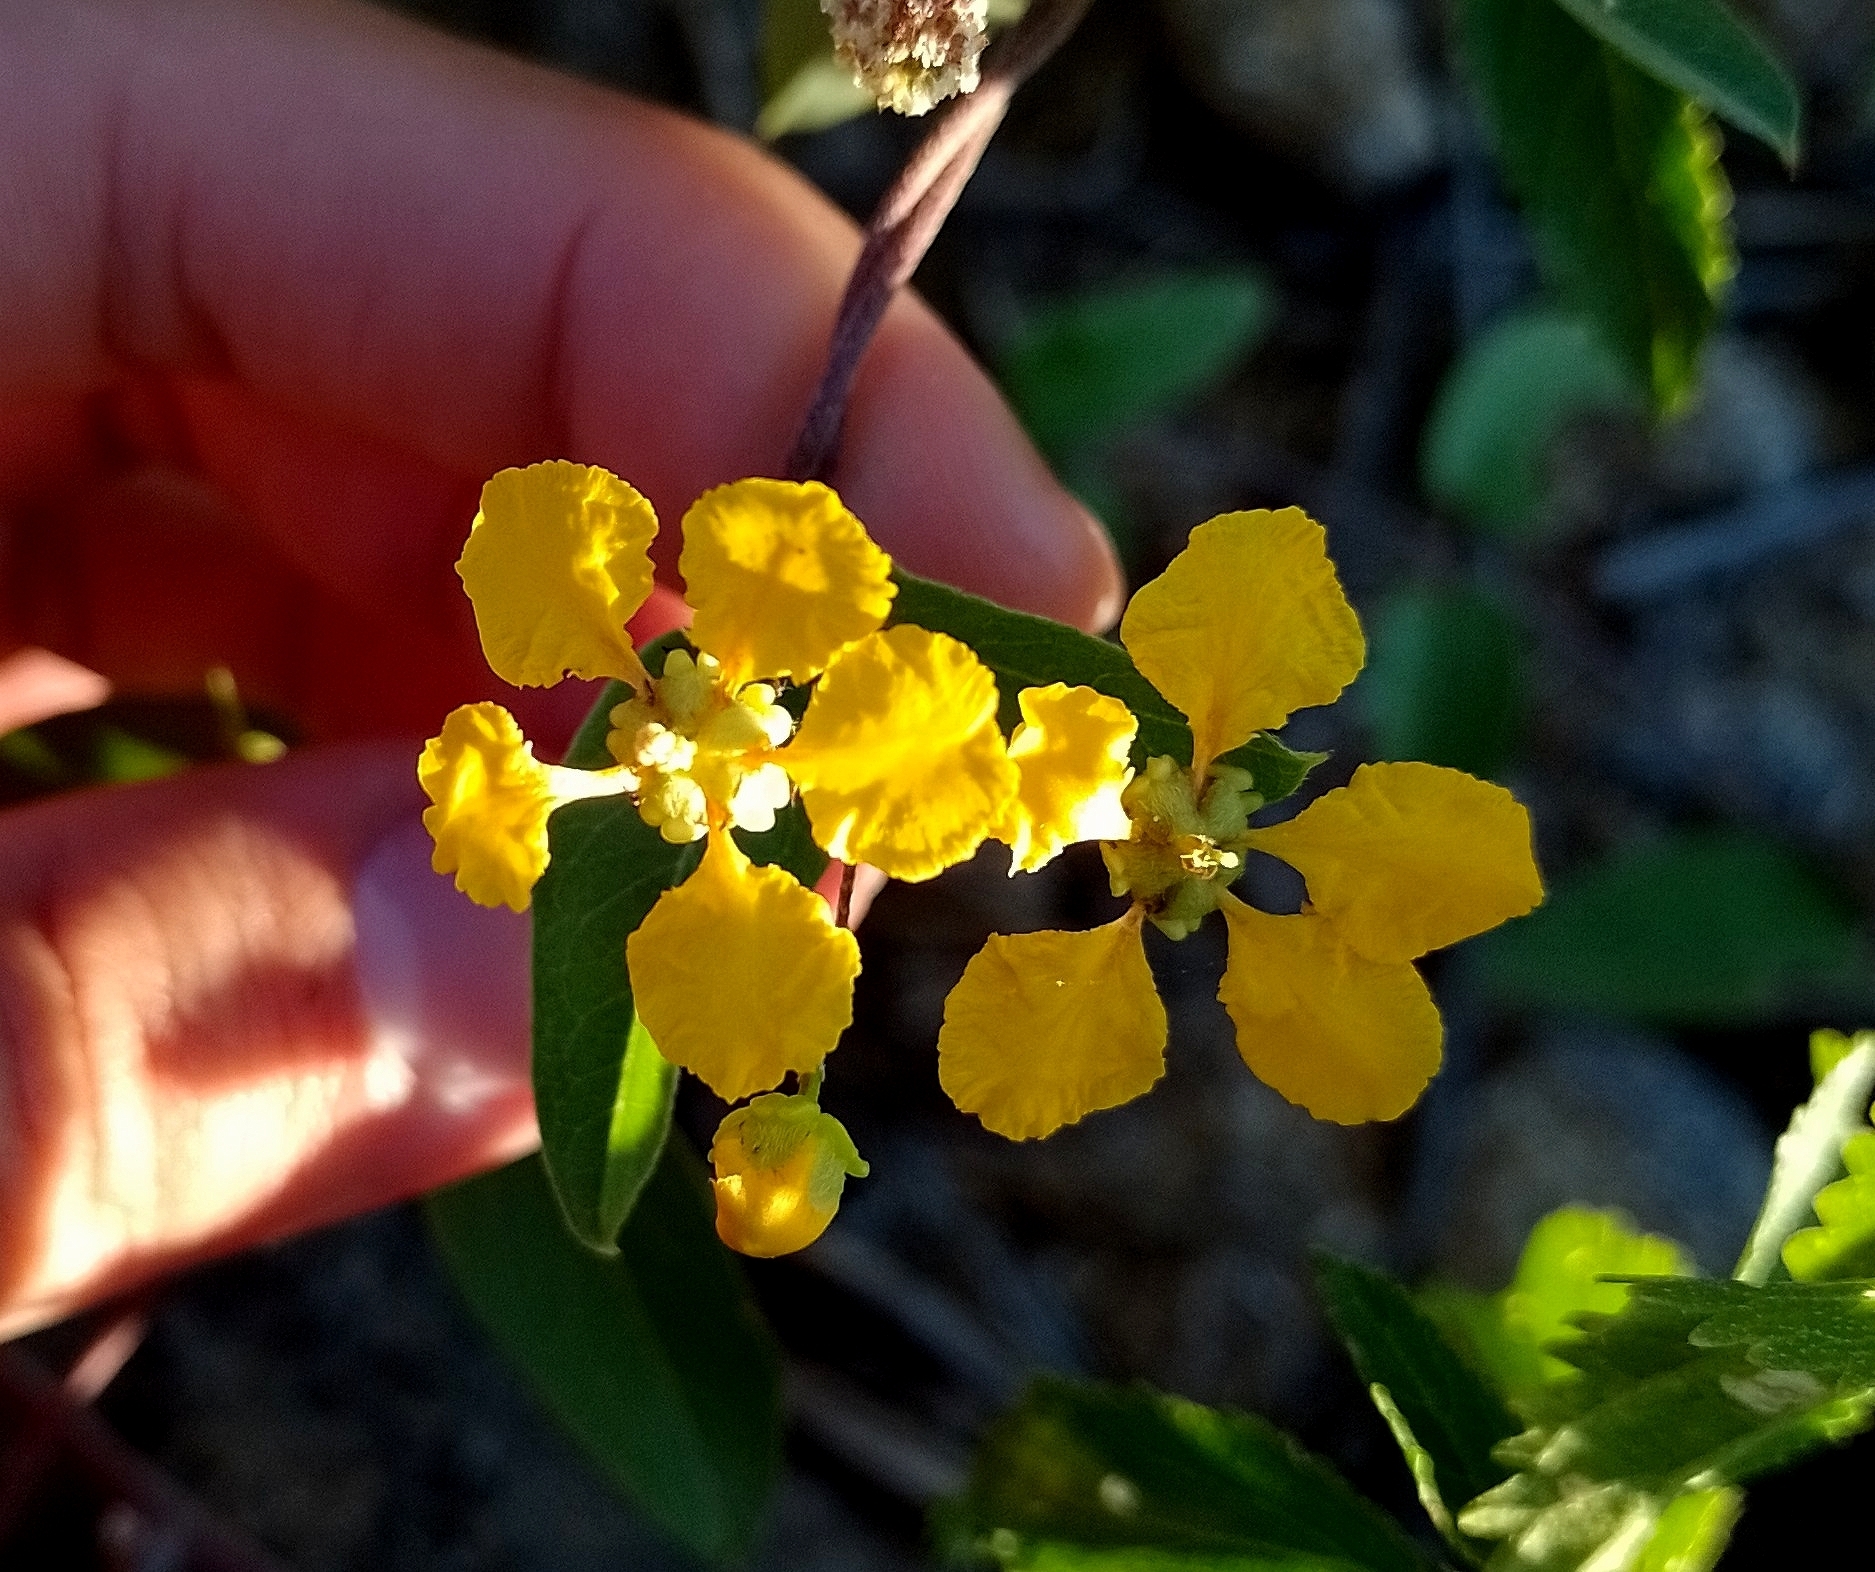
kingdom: Plantae
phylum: Tracheophyta
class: Magnoliopsida
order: Malpighiales
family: Malpighiaceae
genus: Janusia
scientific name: Janusia guaranitica
